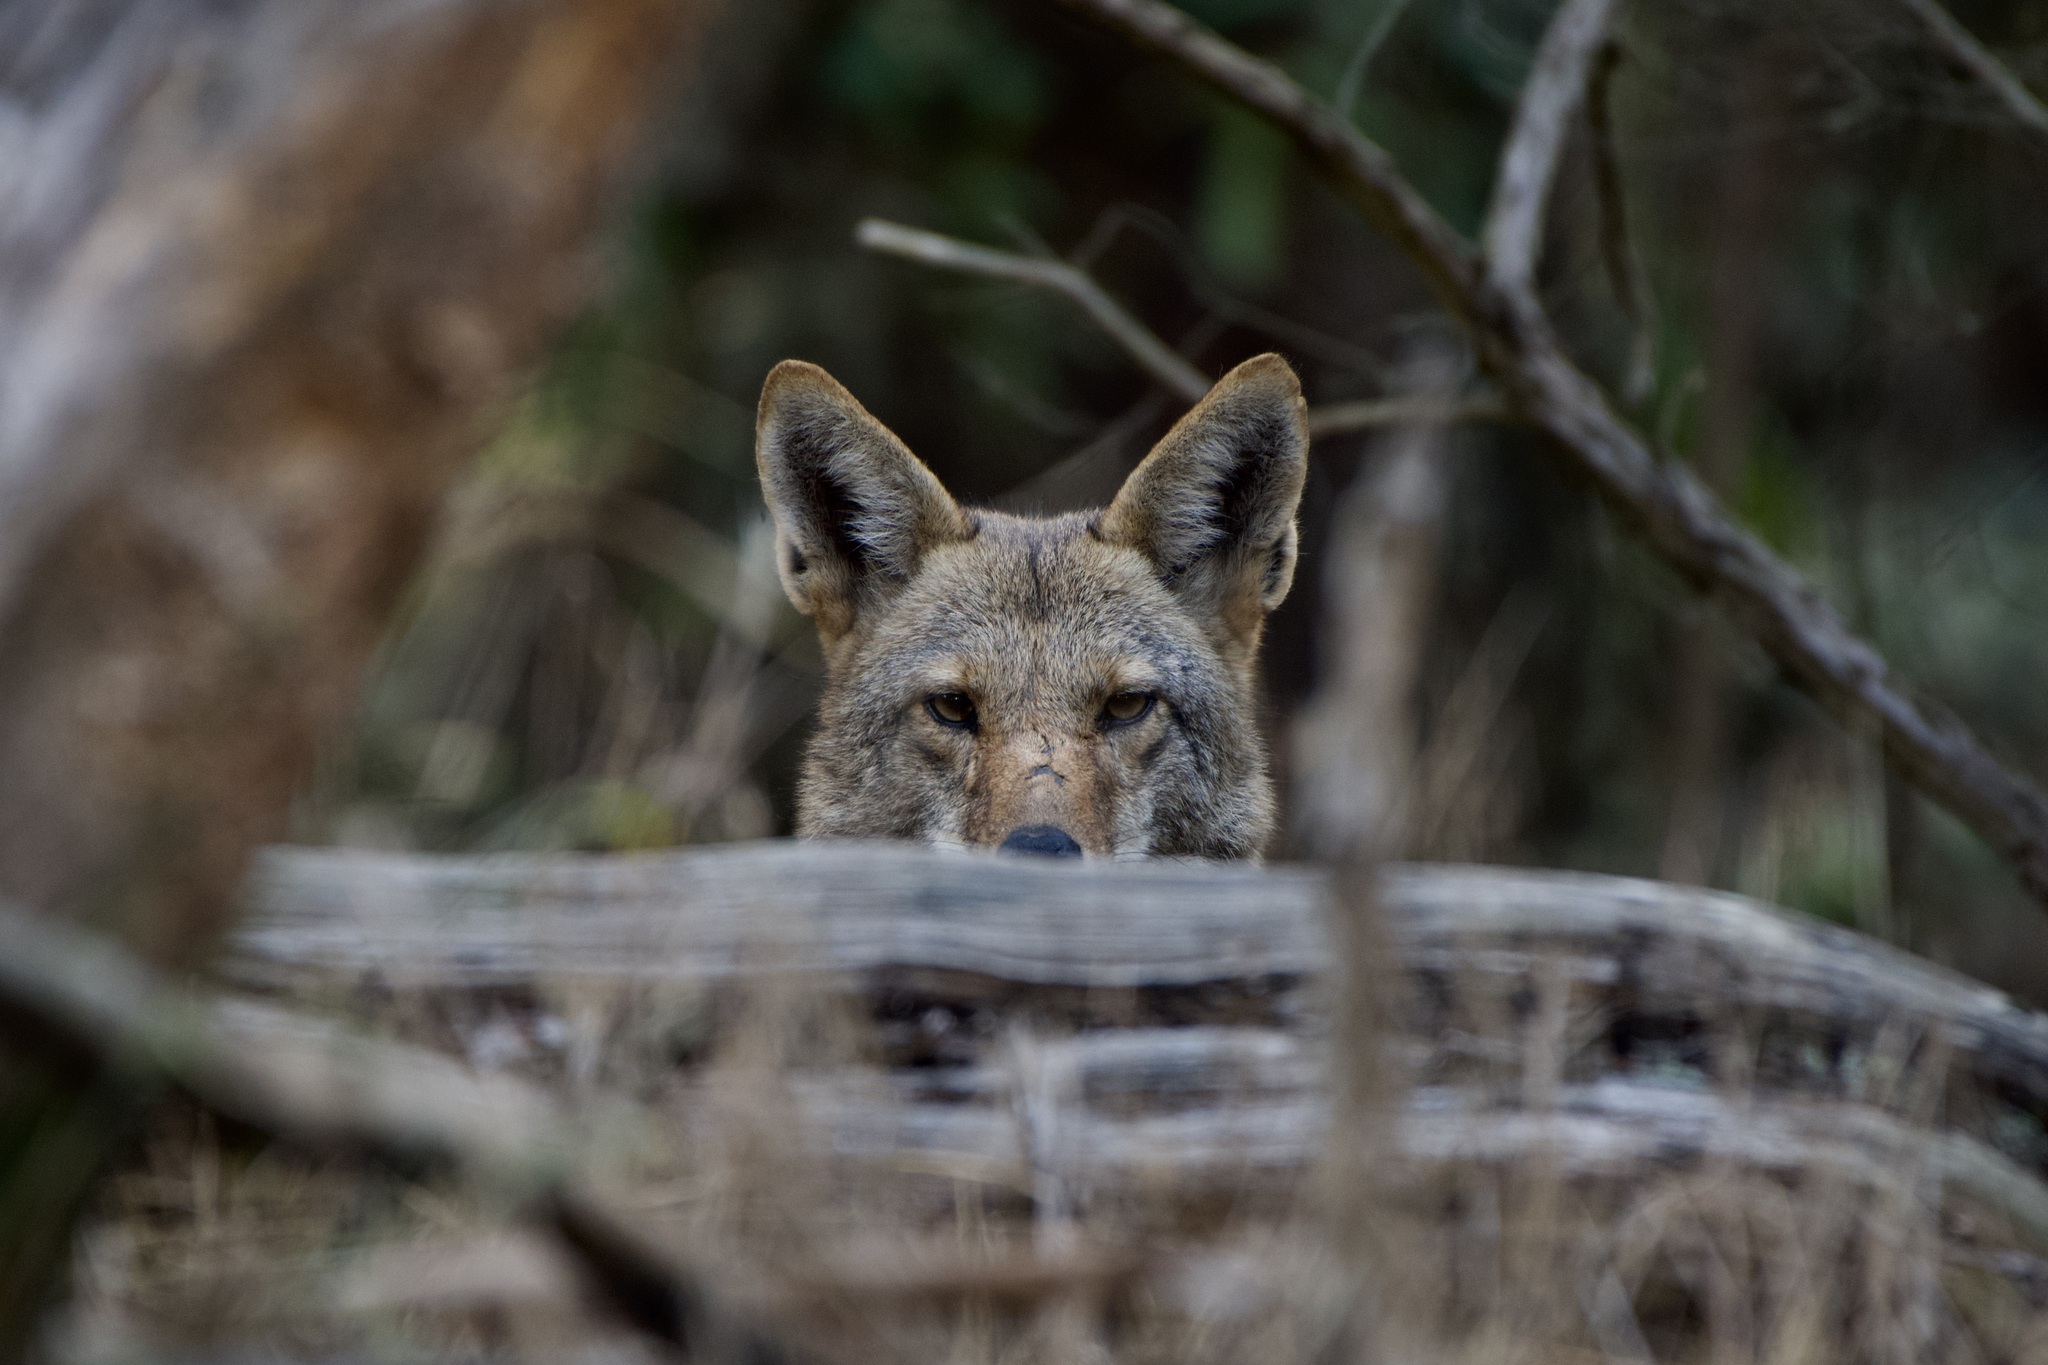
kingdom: Animalia
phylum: Chordata
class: Mammalia
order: Carnivora
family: Canidae
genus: Canis
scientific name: Canis latrans
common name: Coyote
